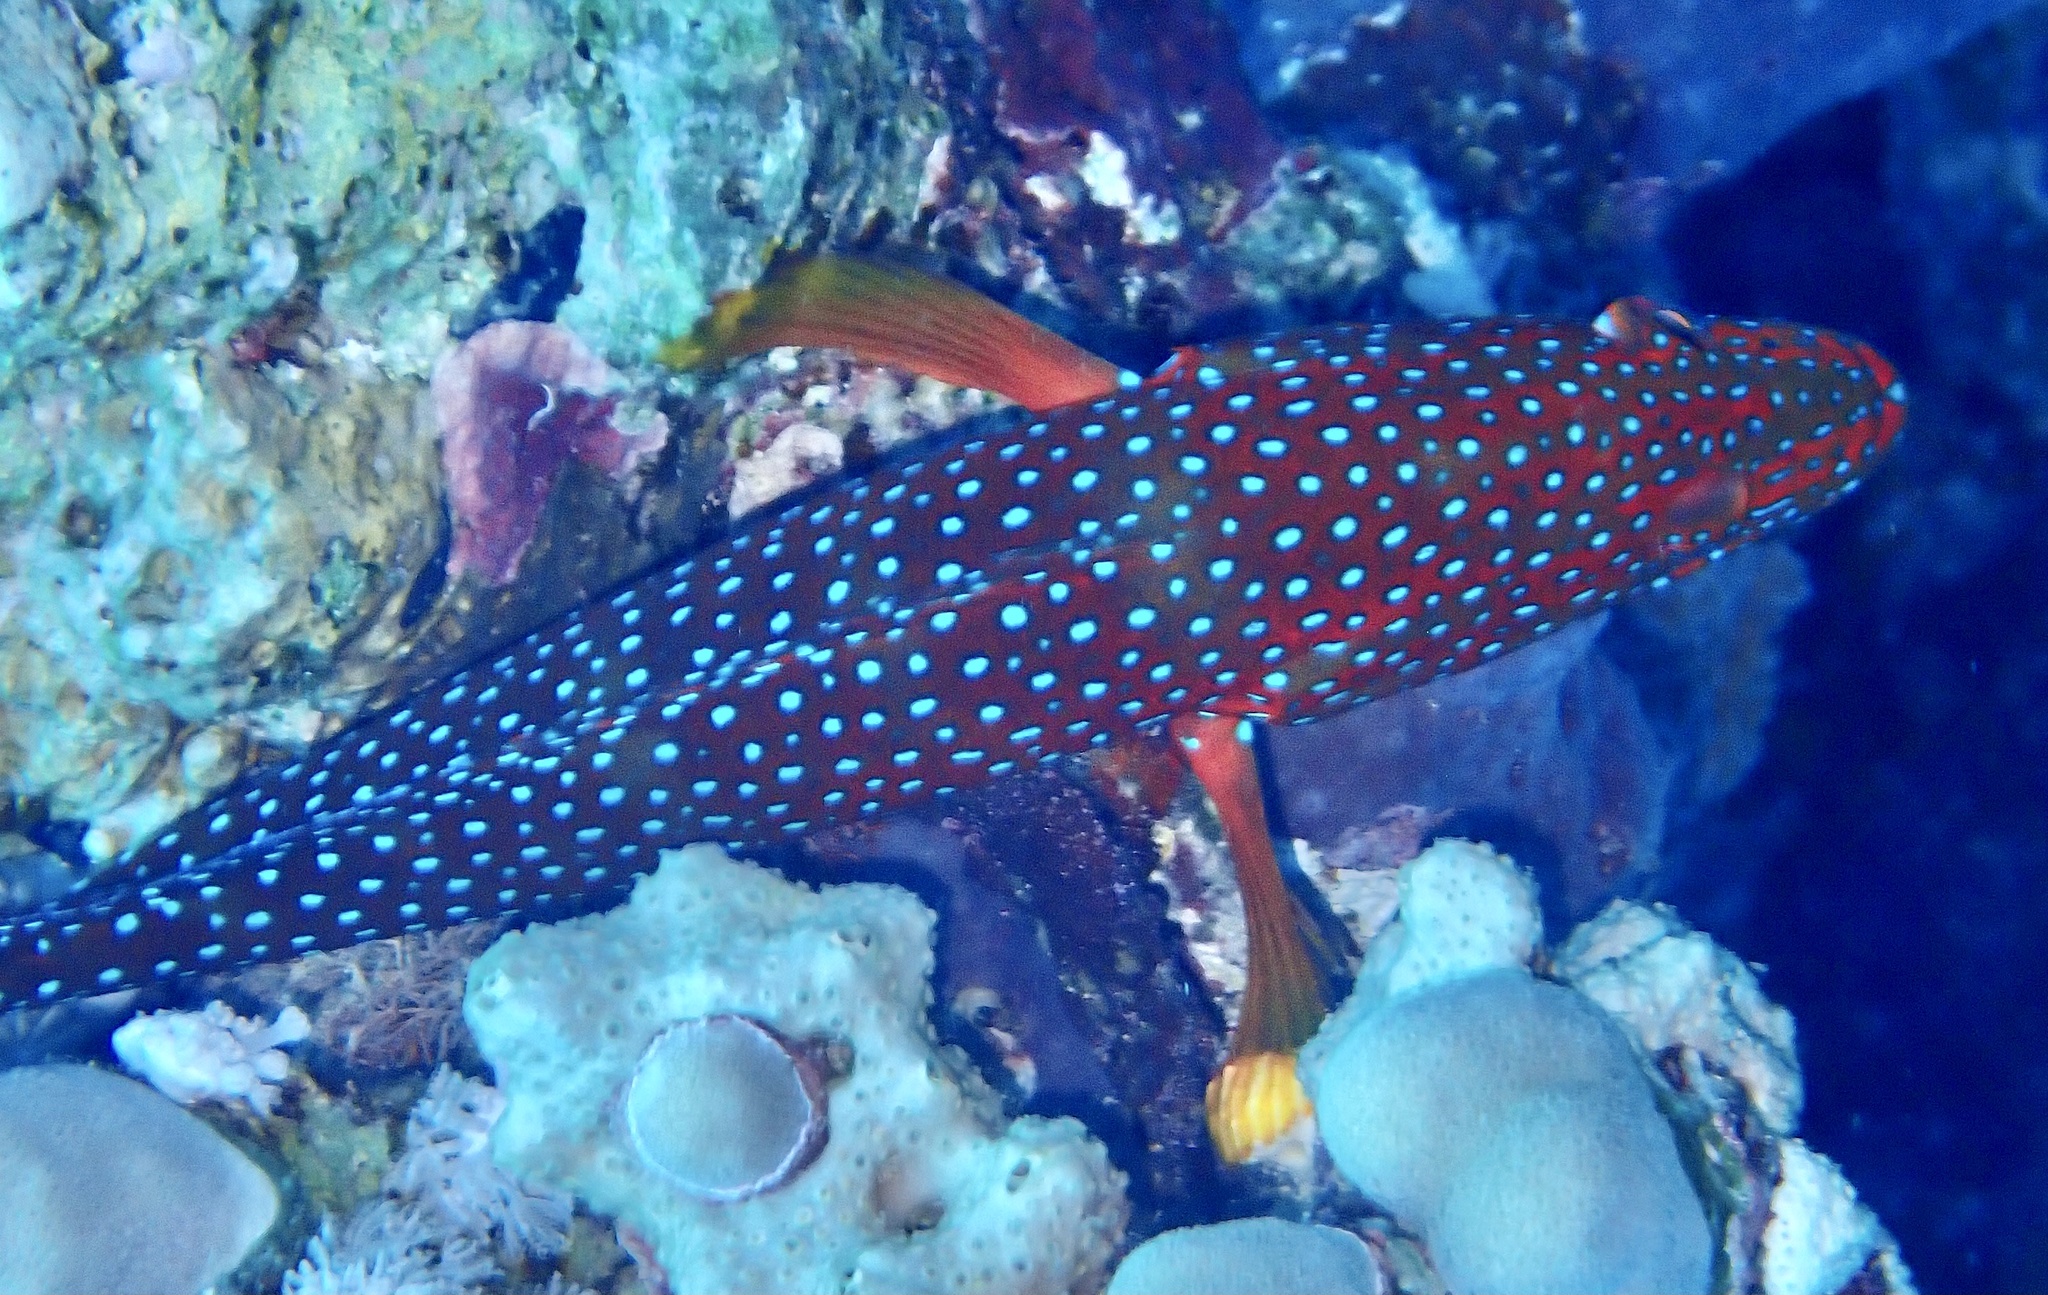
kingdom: Animalia
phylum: Chordata
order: Perciformes
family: Serranidae
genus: Cephalopholis
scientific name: Cephalopholis miniata
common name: Coral hind
